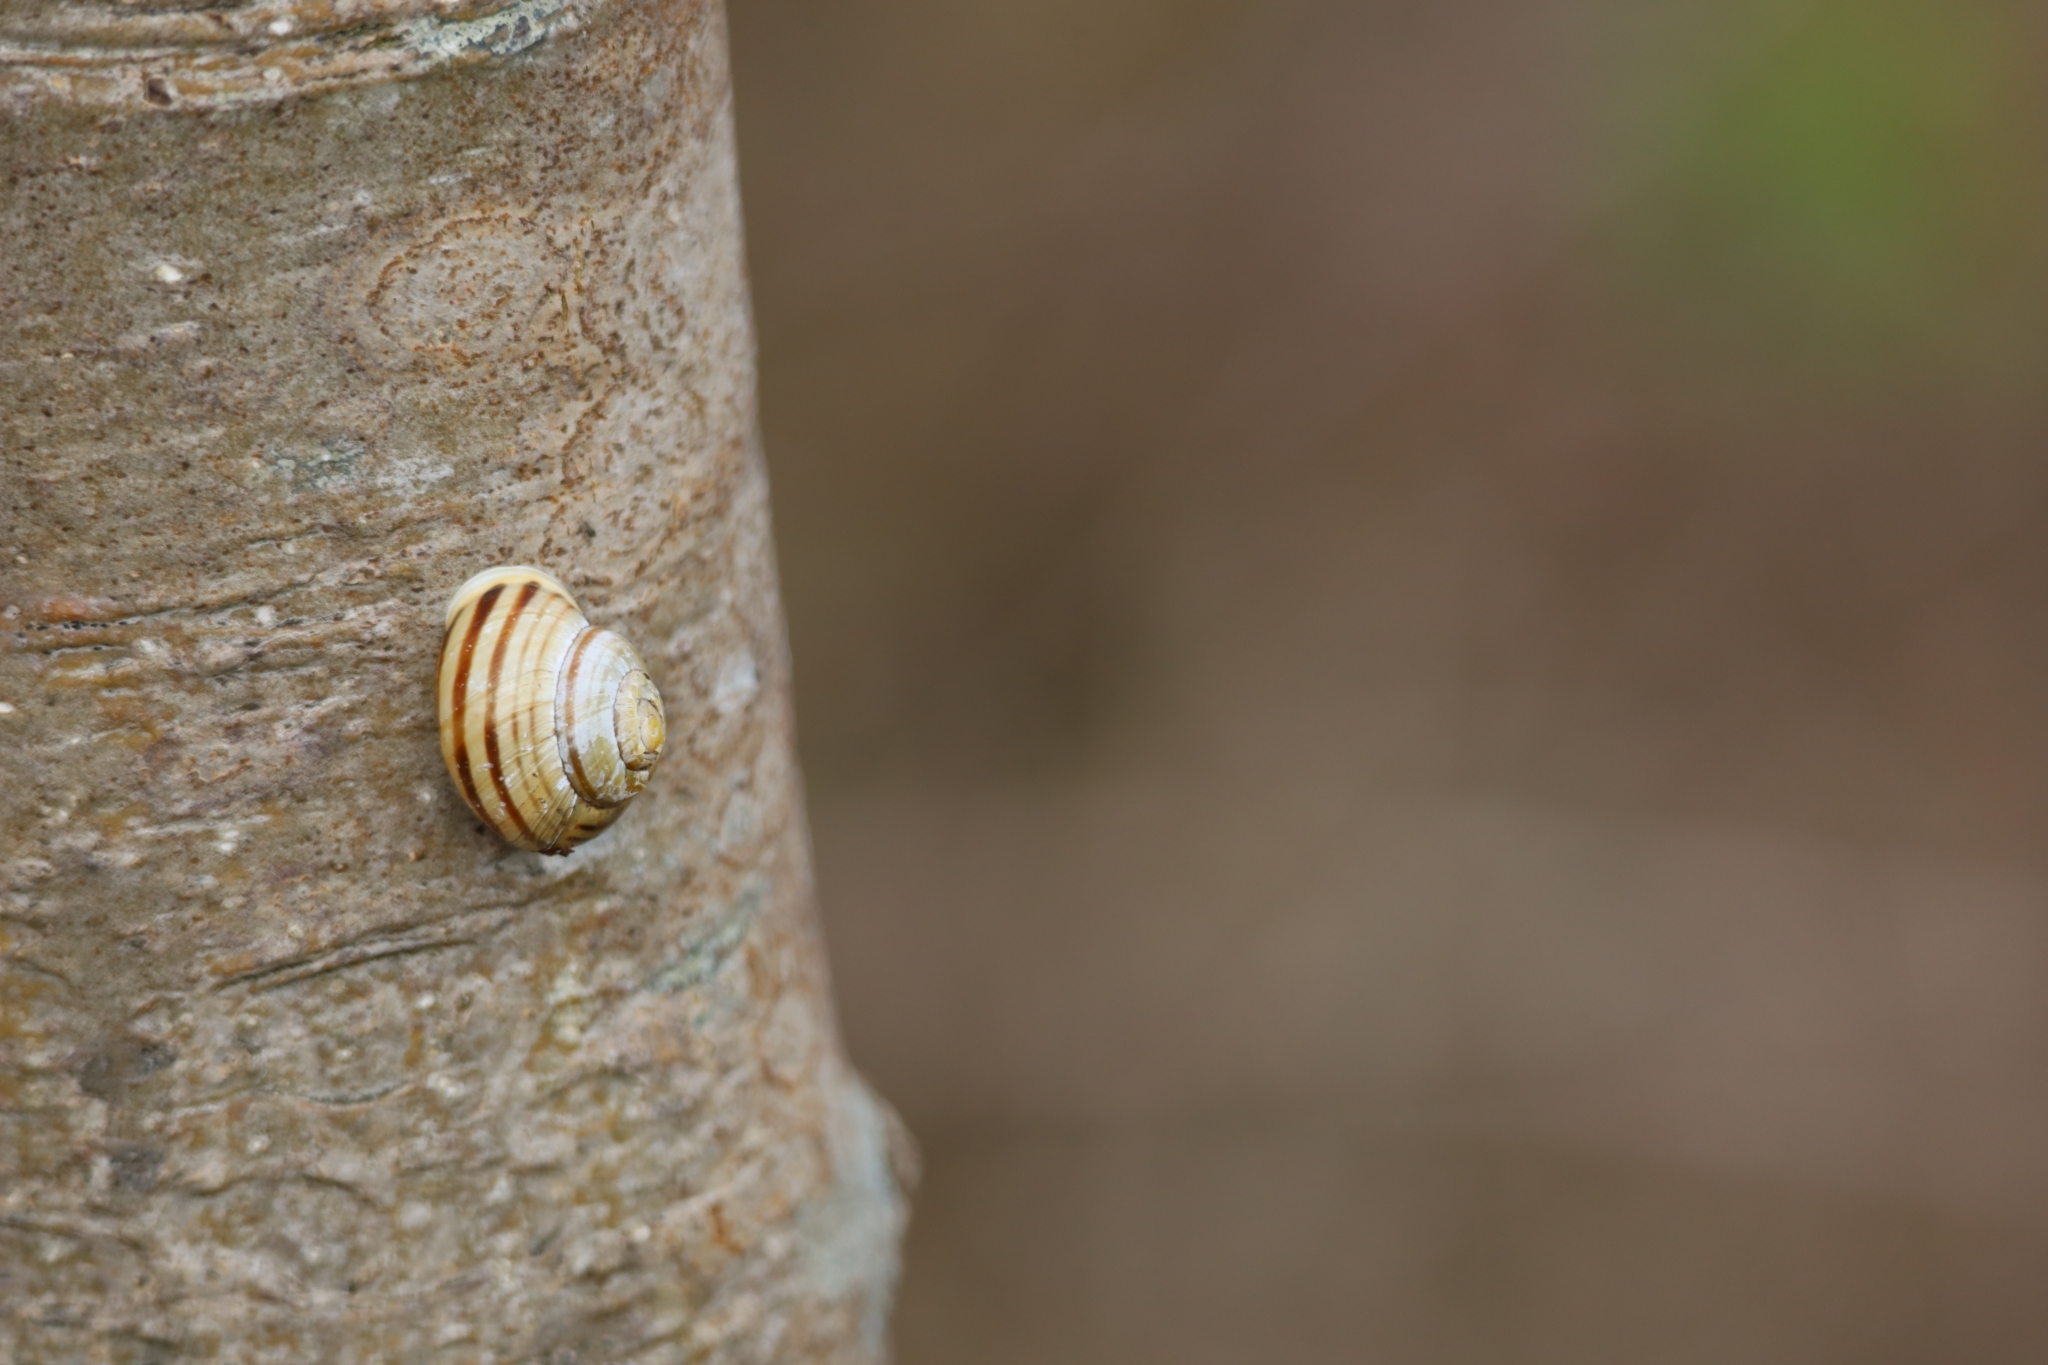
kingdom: Animalia
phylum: Mollusca
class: Gastropoda
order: Stylommatophora
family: Helicidae
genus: Cepaea
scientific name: Cepaea hortensis
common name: White-lip gardensnail
